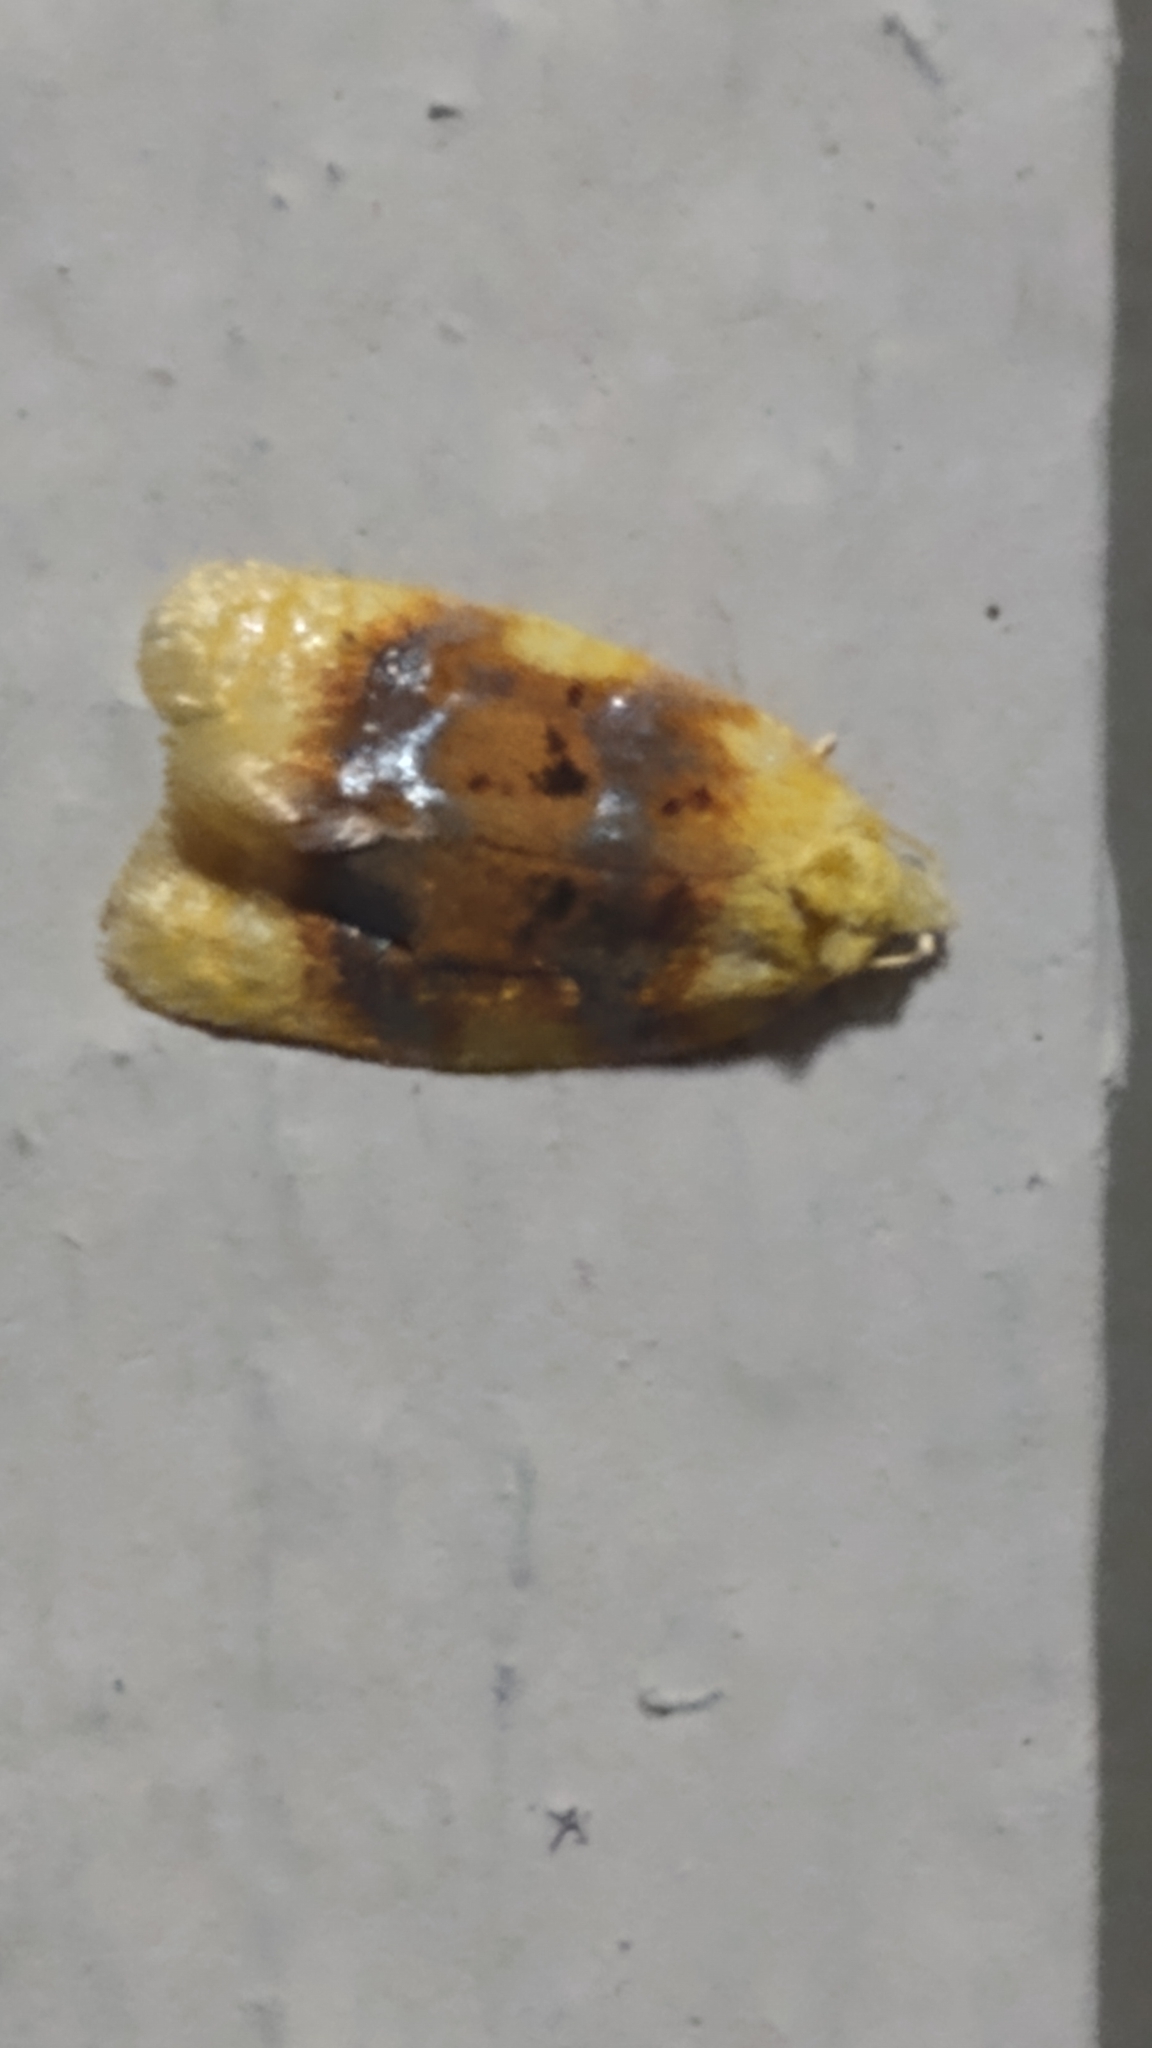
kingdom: Animalia
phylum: Arthropoda
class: Insecta
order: Lepidoptera
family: Tortricidae
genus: Acleris
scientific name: Acleris semipurpurana
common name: Oak leaftier moth
